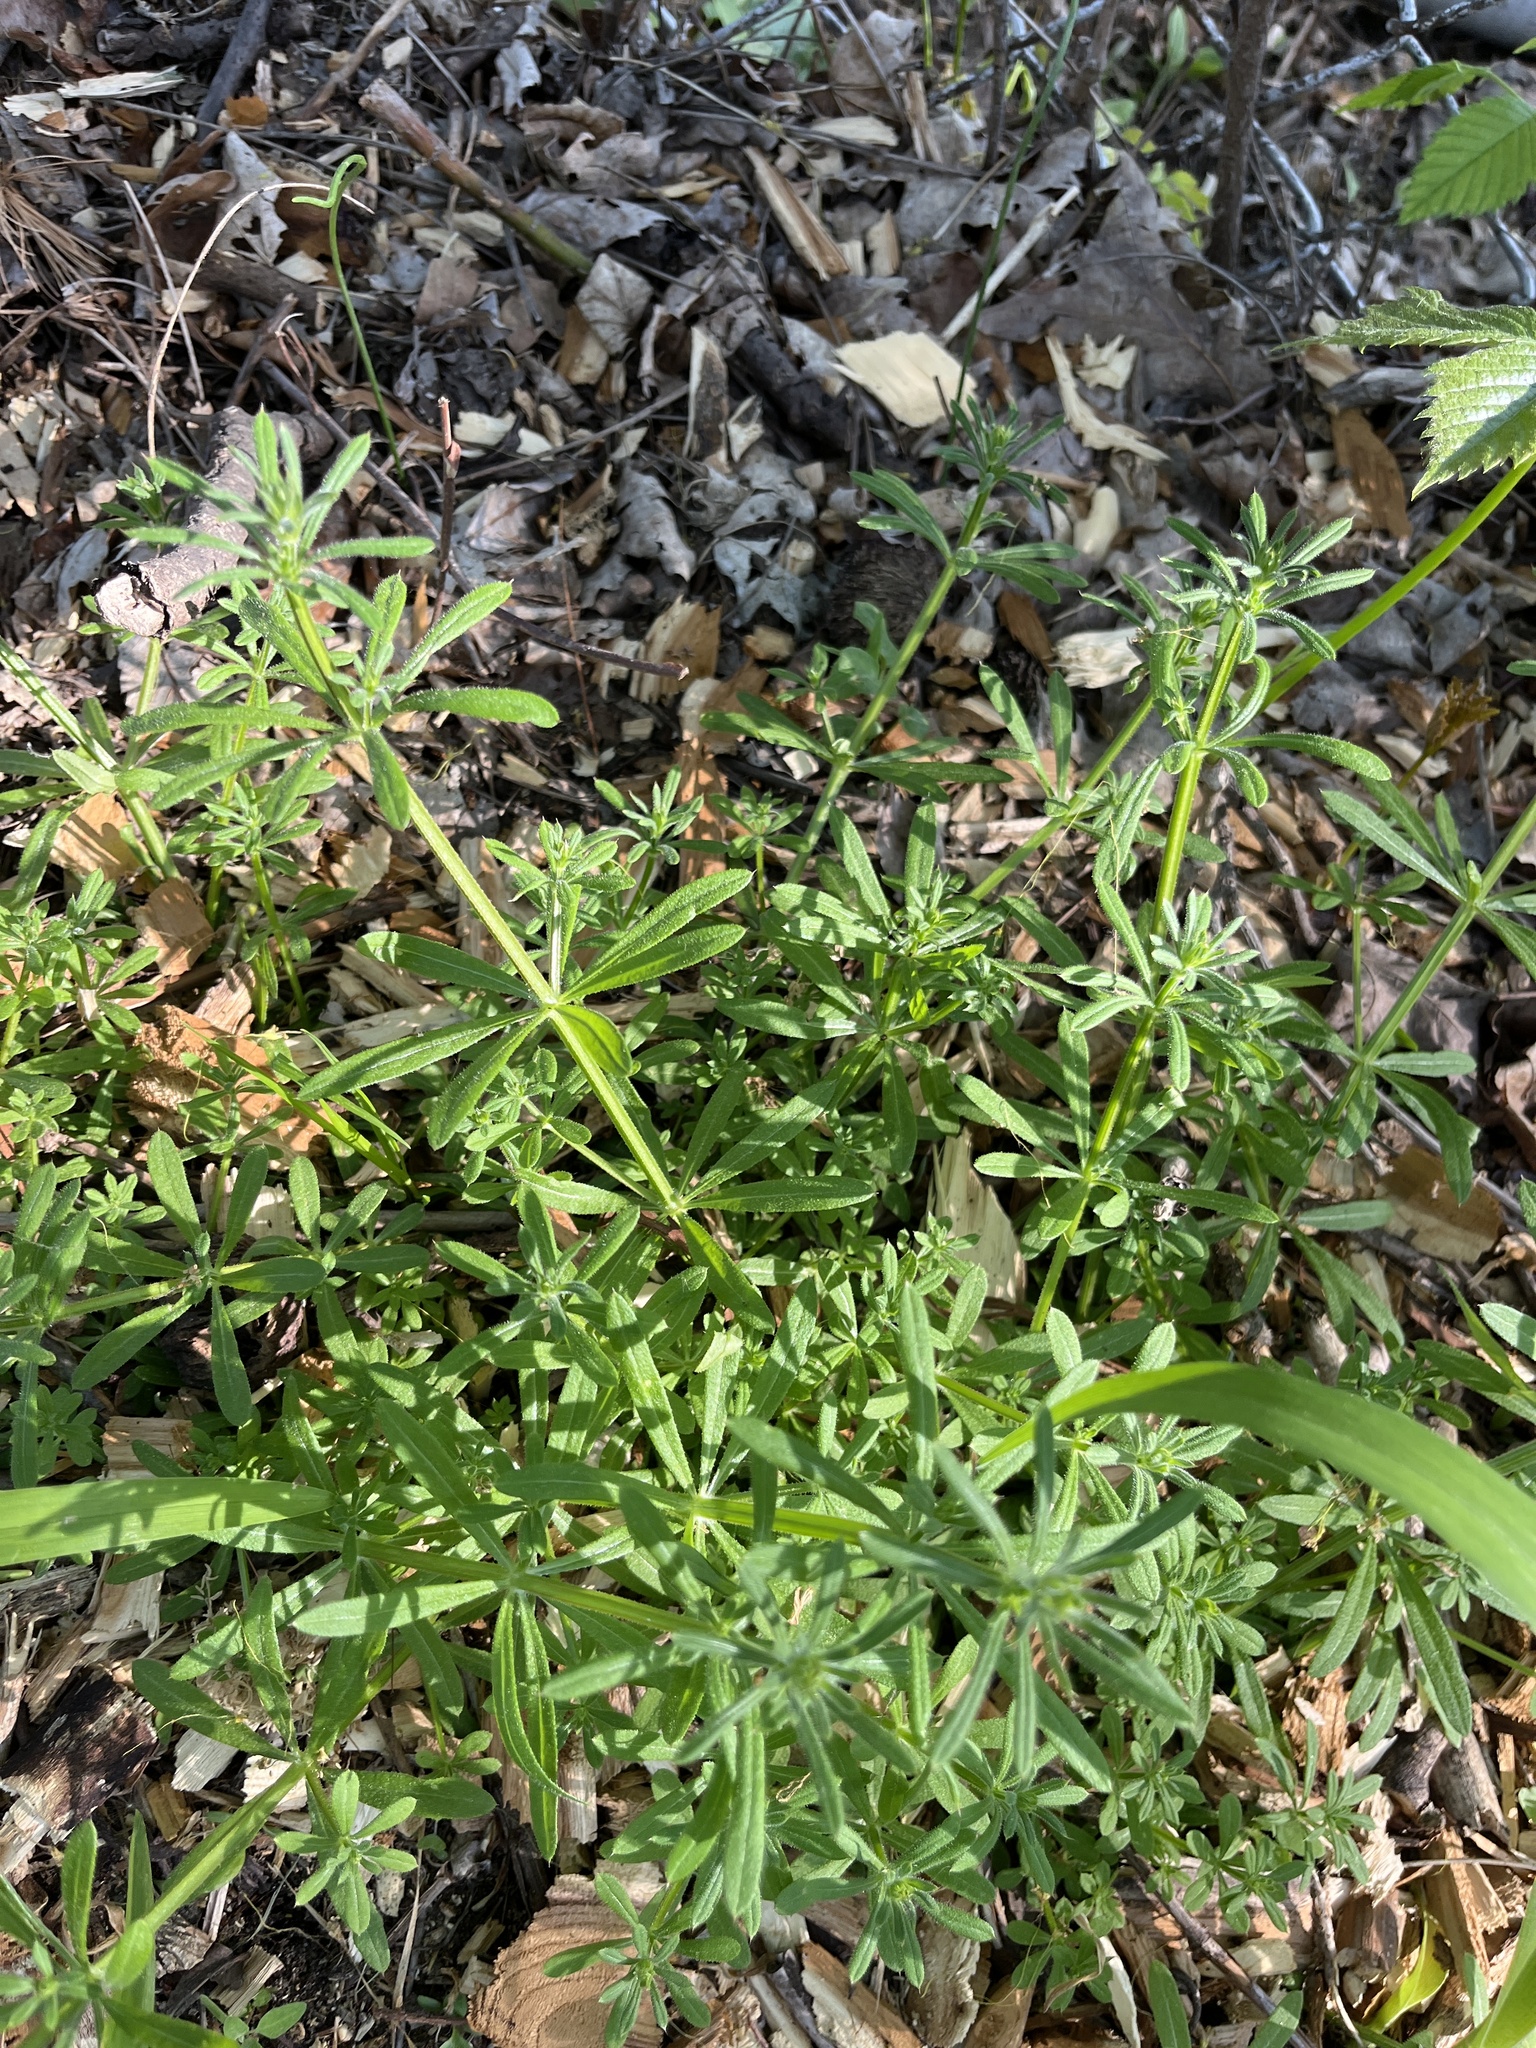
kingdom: Plantae
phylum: Tracheophyta
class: Magnoliopsida
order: Gentianales
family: Rubiaceae
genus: Galium
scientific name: Galium aparine
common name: Cleavers
